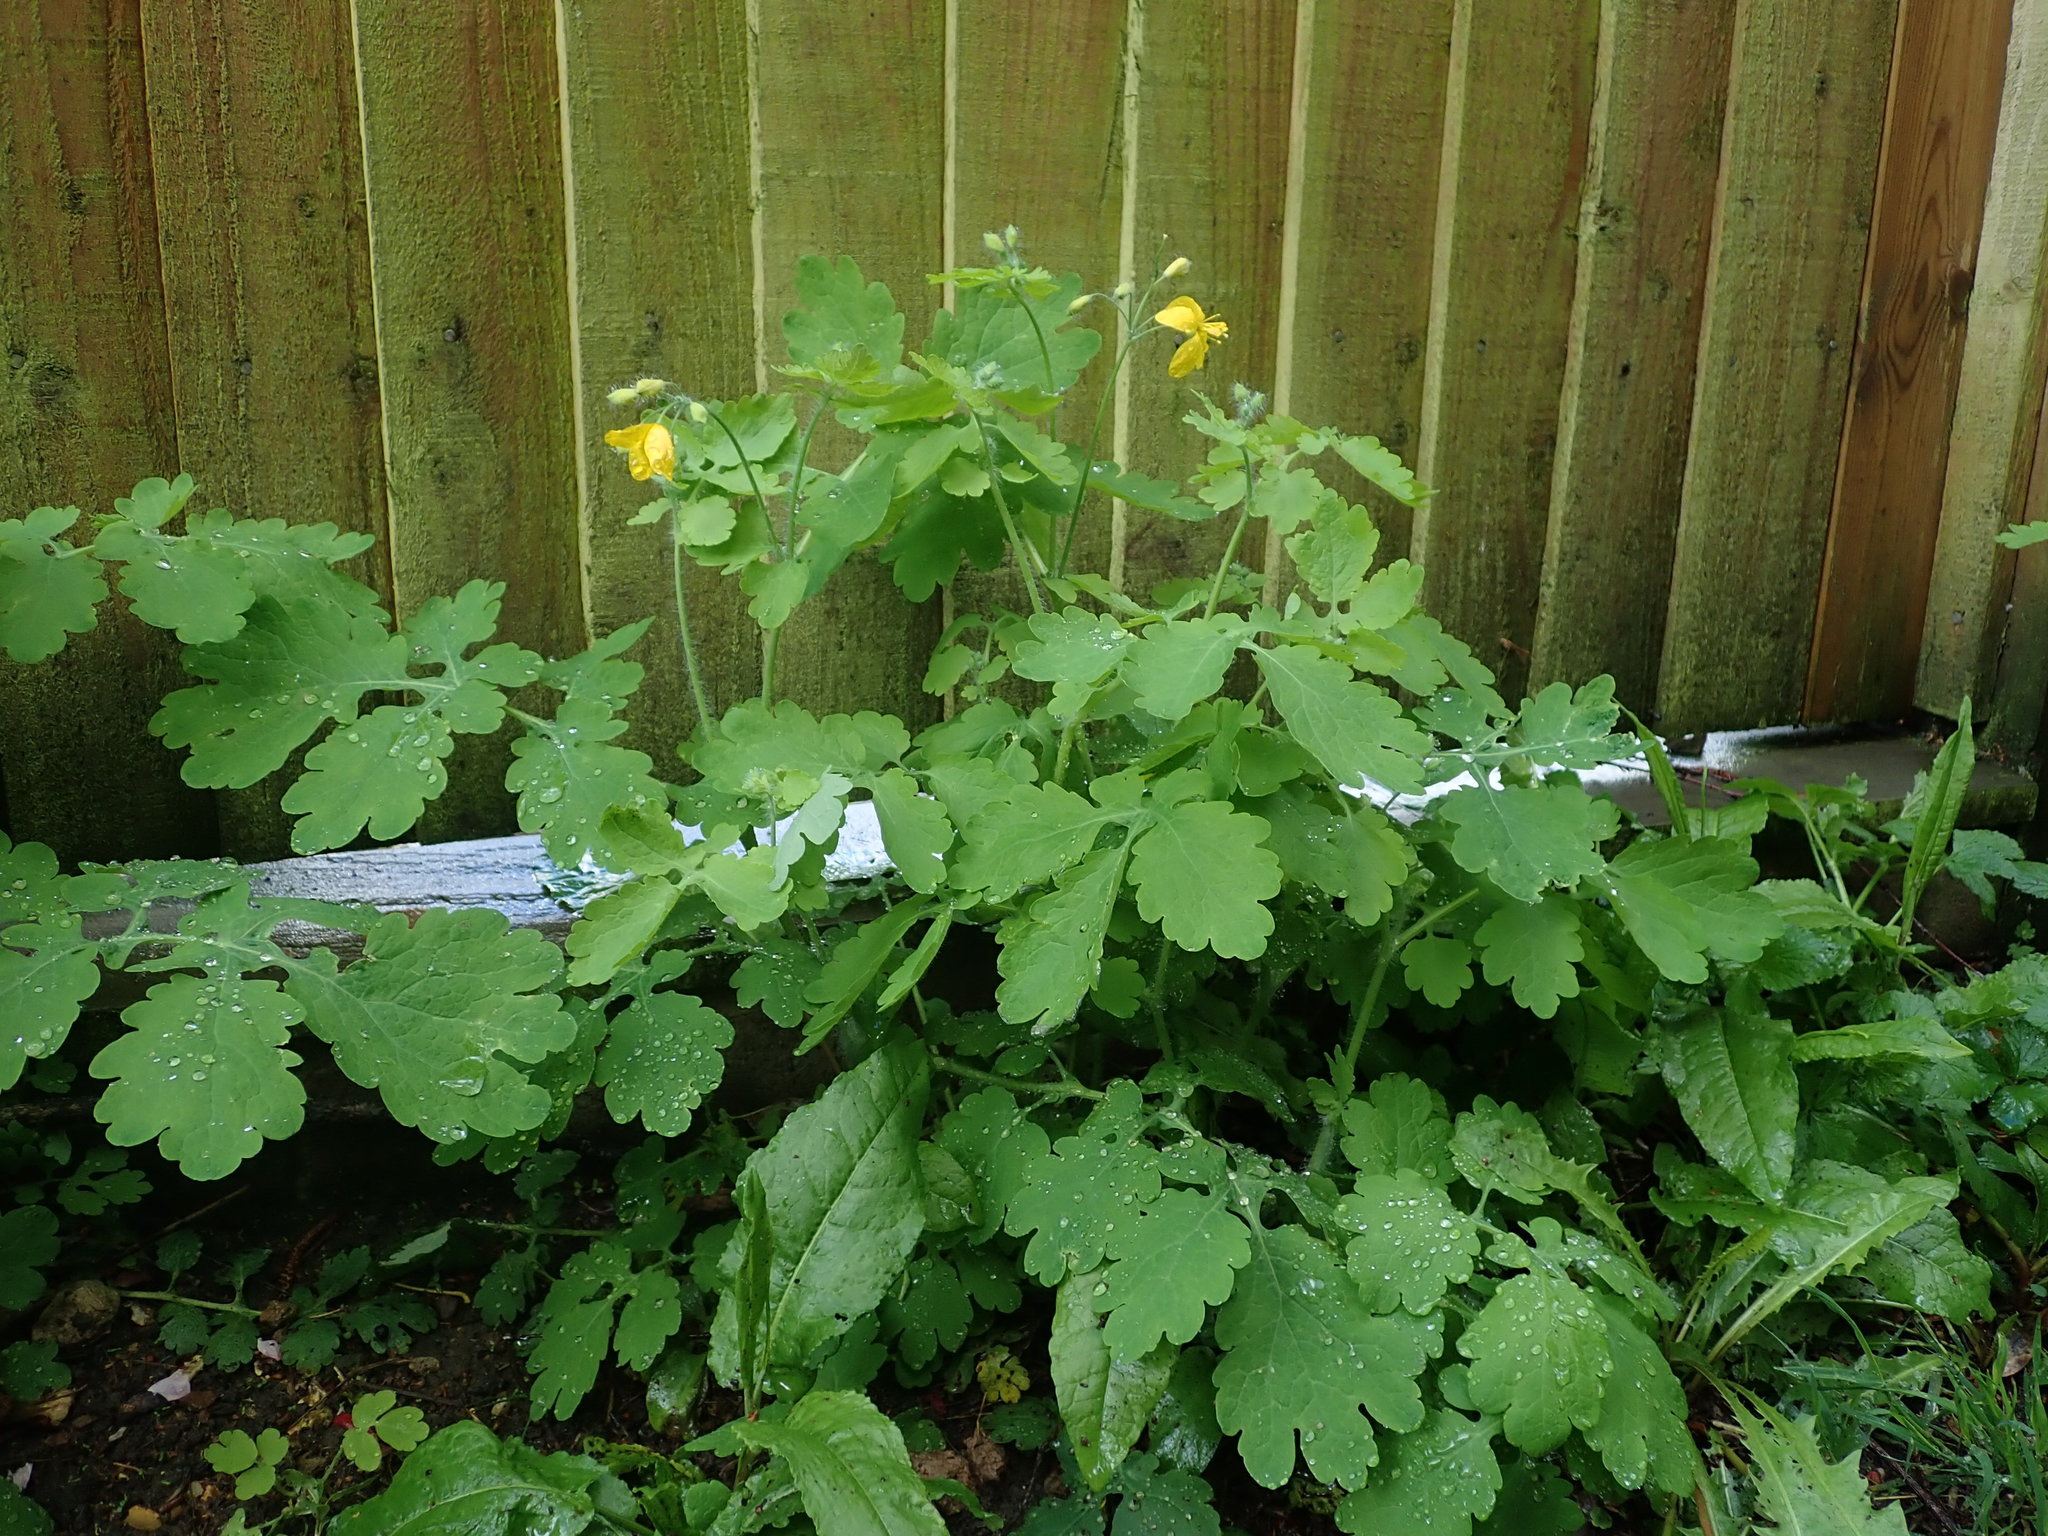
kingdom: Plantae
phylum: Tracheophyta
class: Magnoliopsida
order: Ranunculales
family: Papaveraceae
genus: Chelidonium
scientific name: Chelidonium majus
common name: Greater celandine
